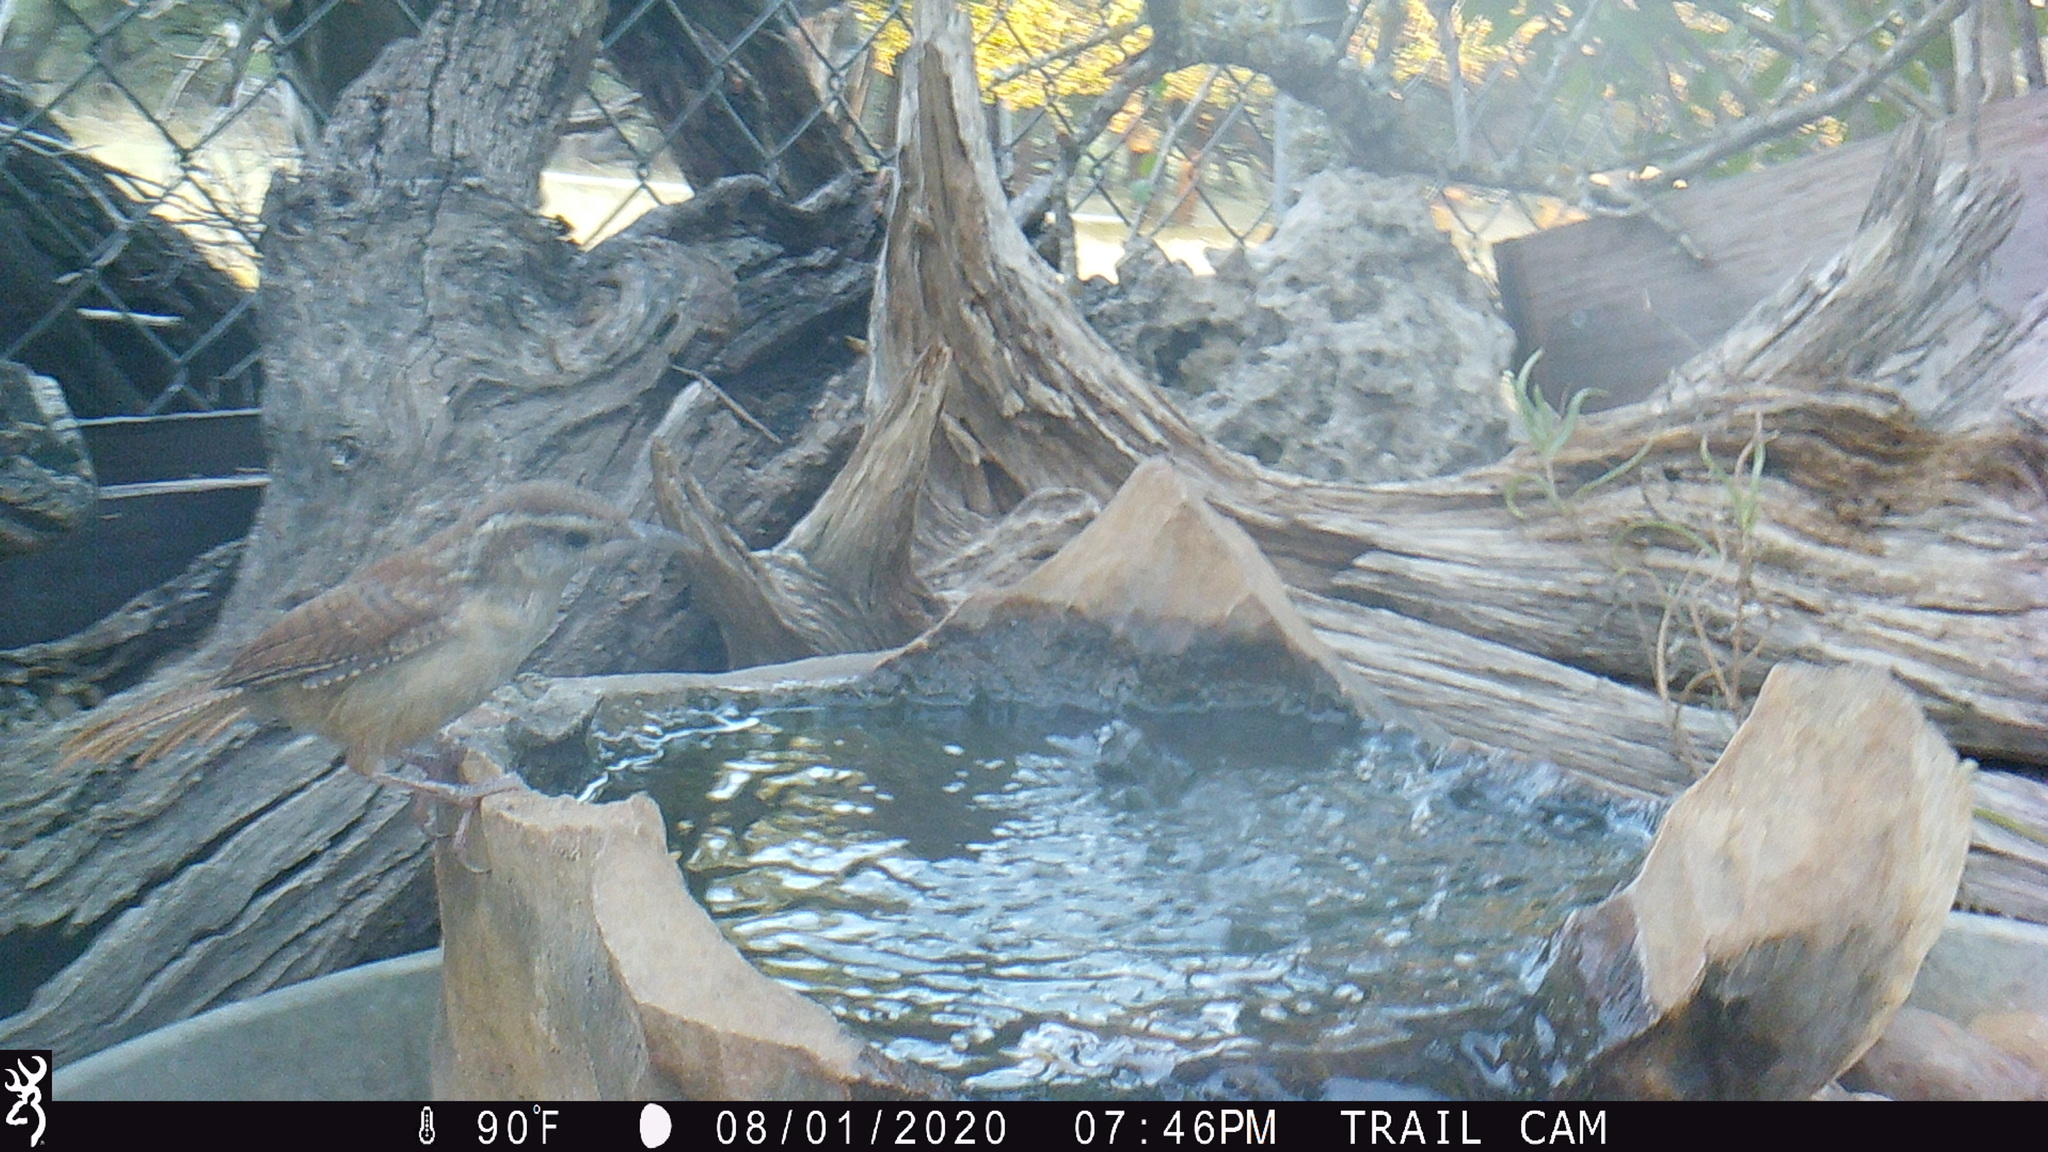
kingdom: Animalia
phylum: Chordata
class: Aves
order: Passeriformes
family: Troglodytidae
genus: Thryothorus
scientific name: Thryothorus ludovicianus
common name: Carolina wren
